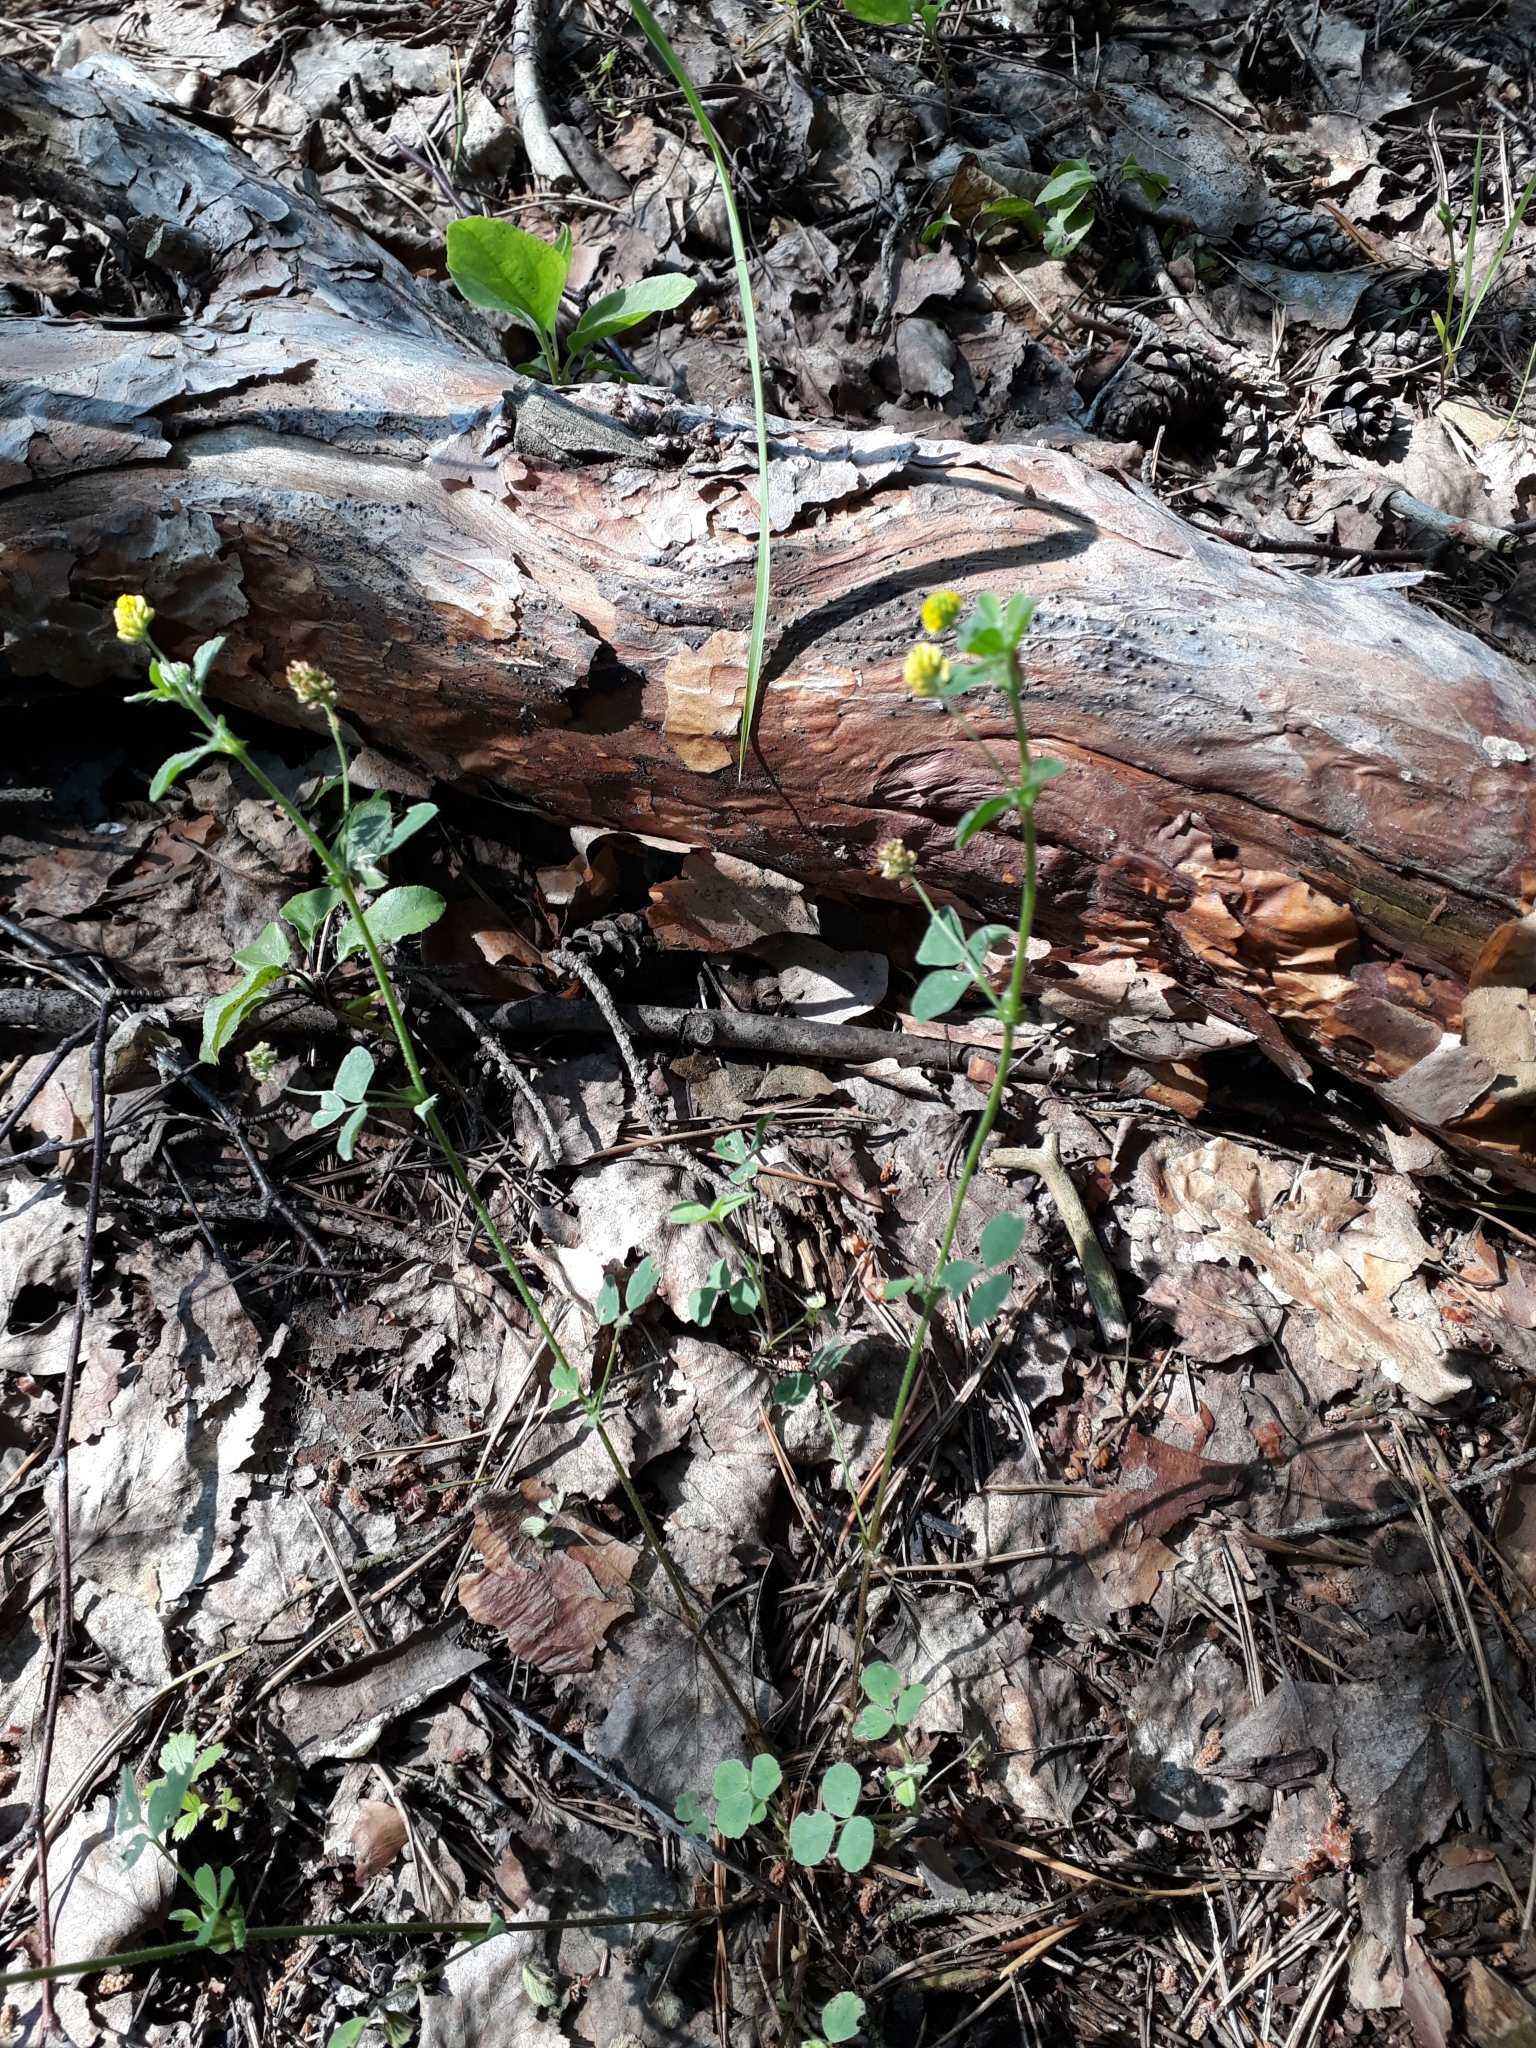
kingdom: Plantae
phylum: Tracheophyta
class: Magnoliopsida
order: Fabales
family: Fabaceae
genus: Medicago
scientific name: Medicago lupulina
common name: Black medick
